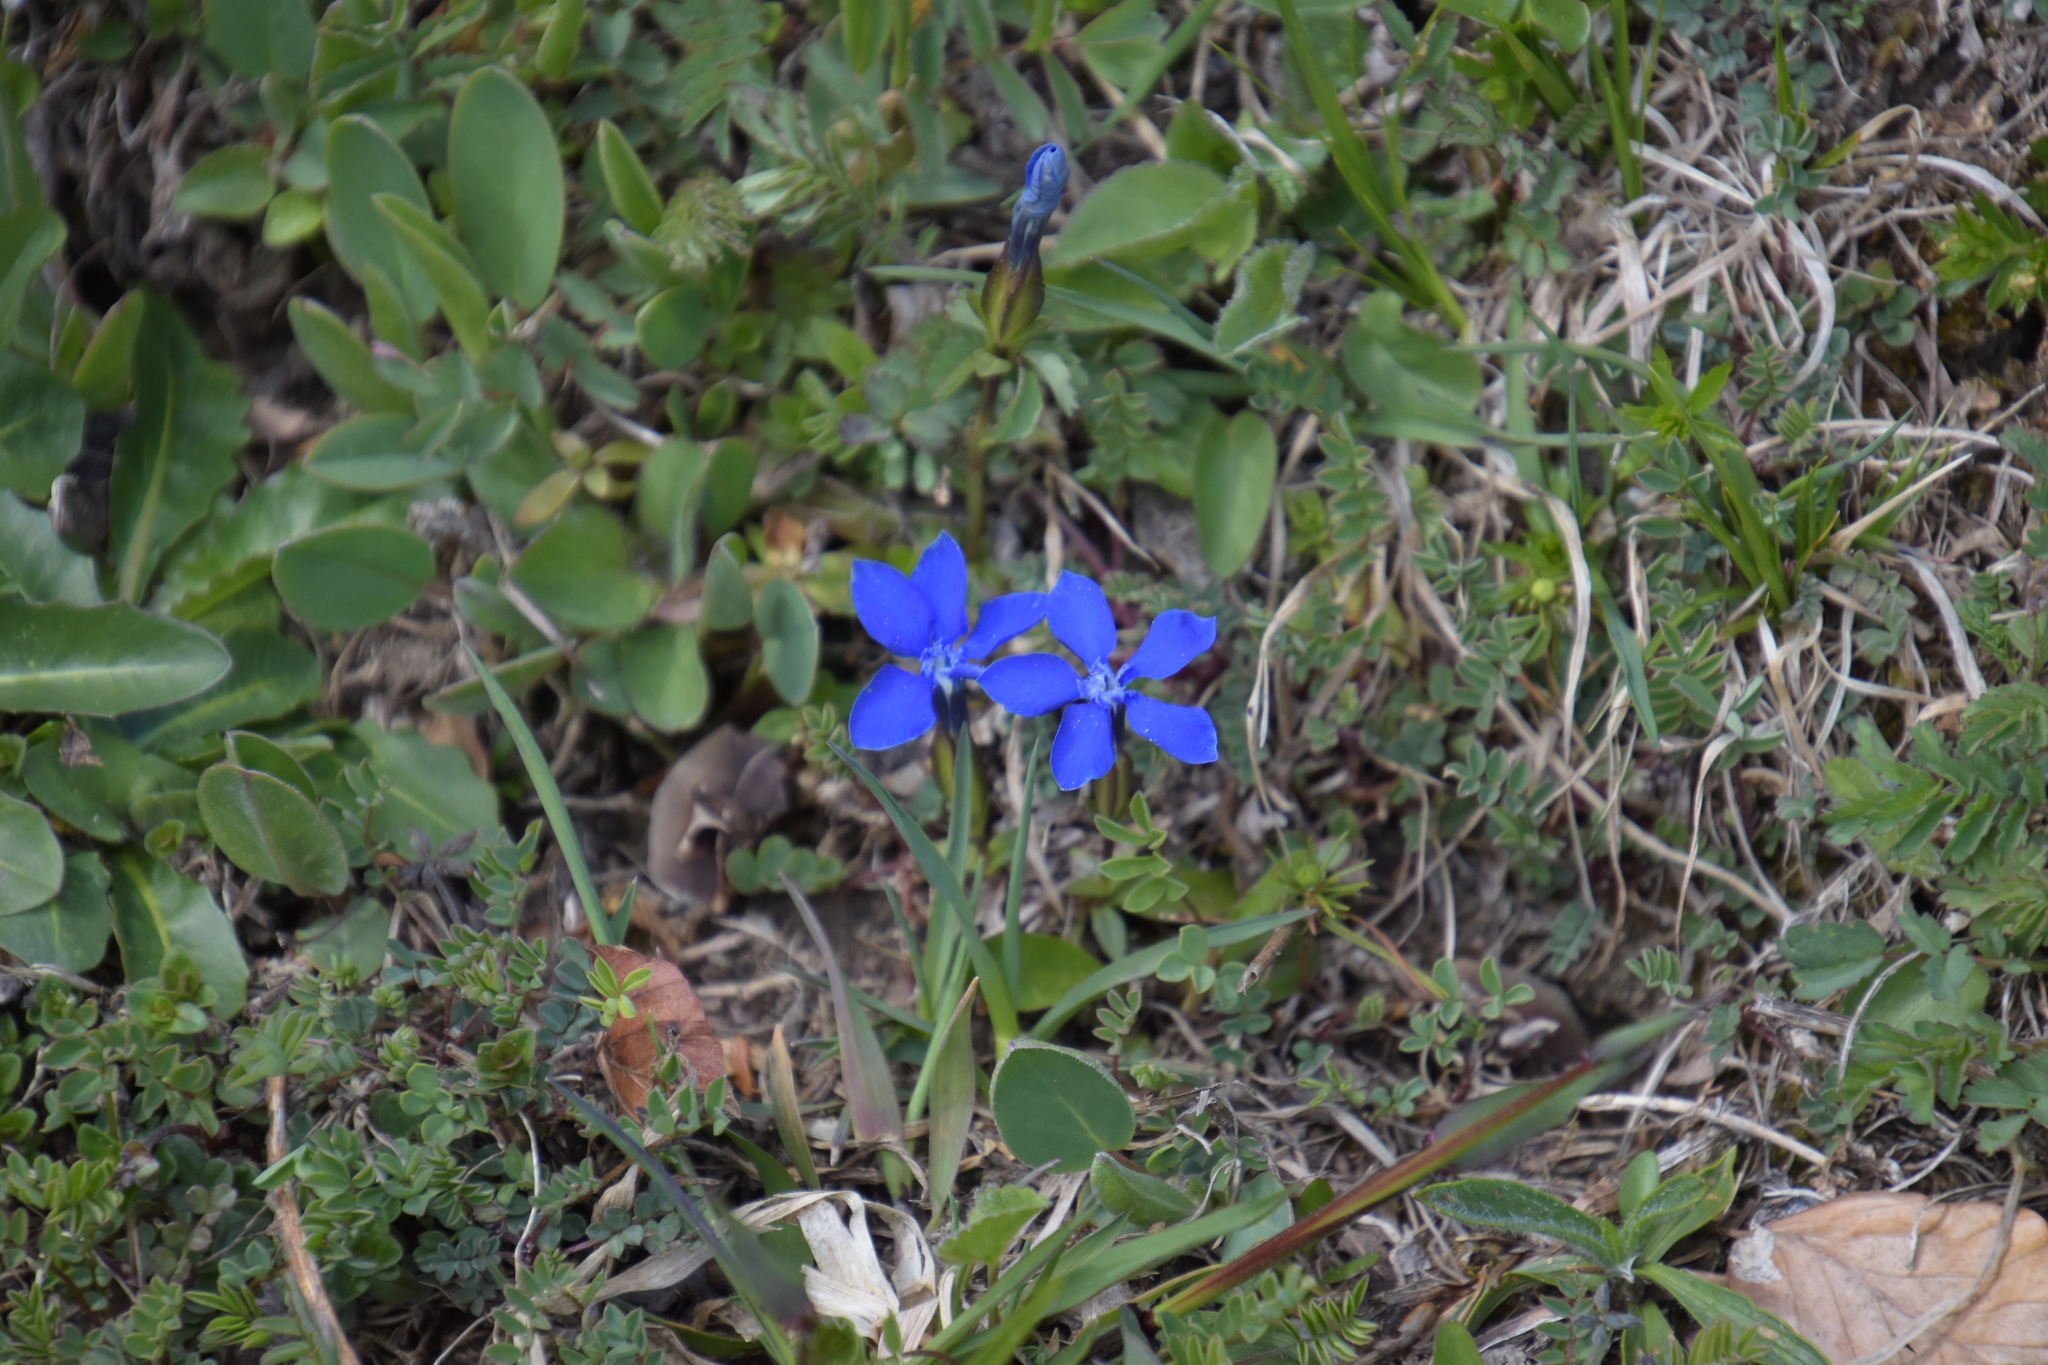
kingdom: Plantae
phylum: Tracheophyta
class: Magnoliopsida
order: Gentianales
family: Gentianaceae
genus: Gentiana
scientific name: Gentiana verna
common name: Spring gentian
